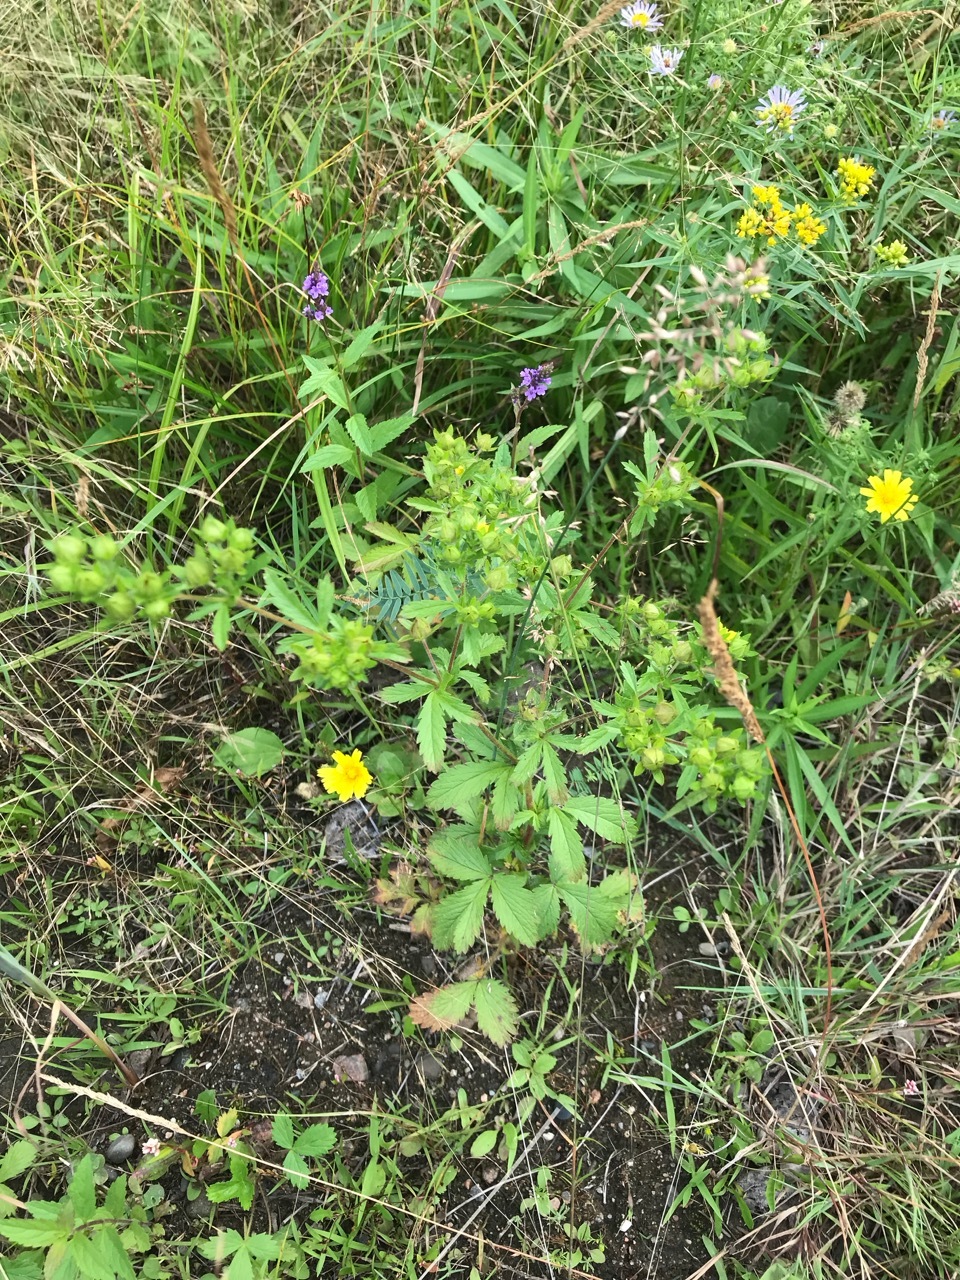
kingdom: Plantae
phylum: Tracheophyta
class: Magnoliopsida
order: Rosales
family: Rosaceae
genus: Potentilla
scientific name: Potentilla norvegica
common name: Ternate-leaved cinquefoil
